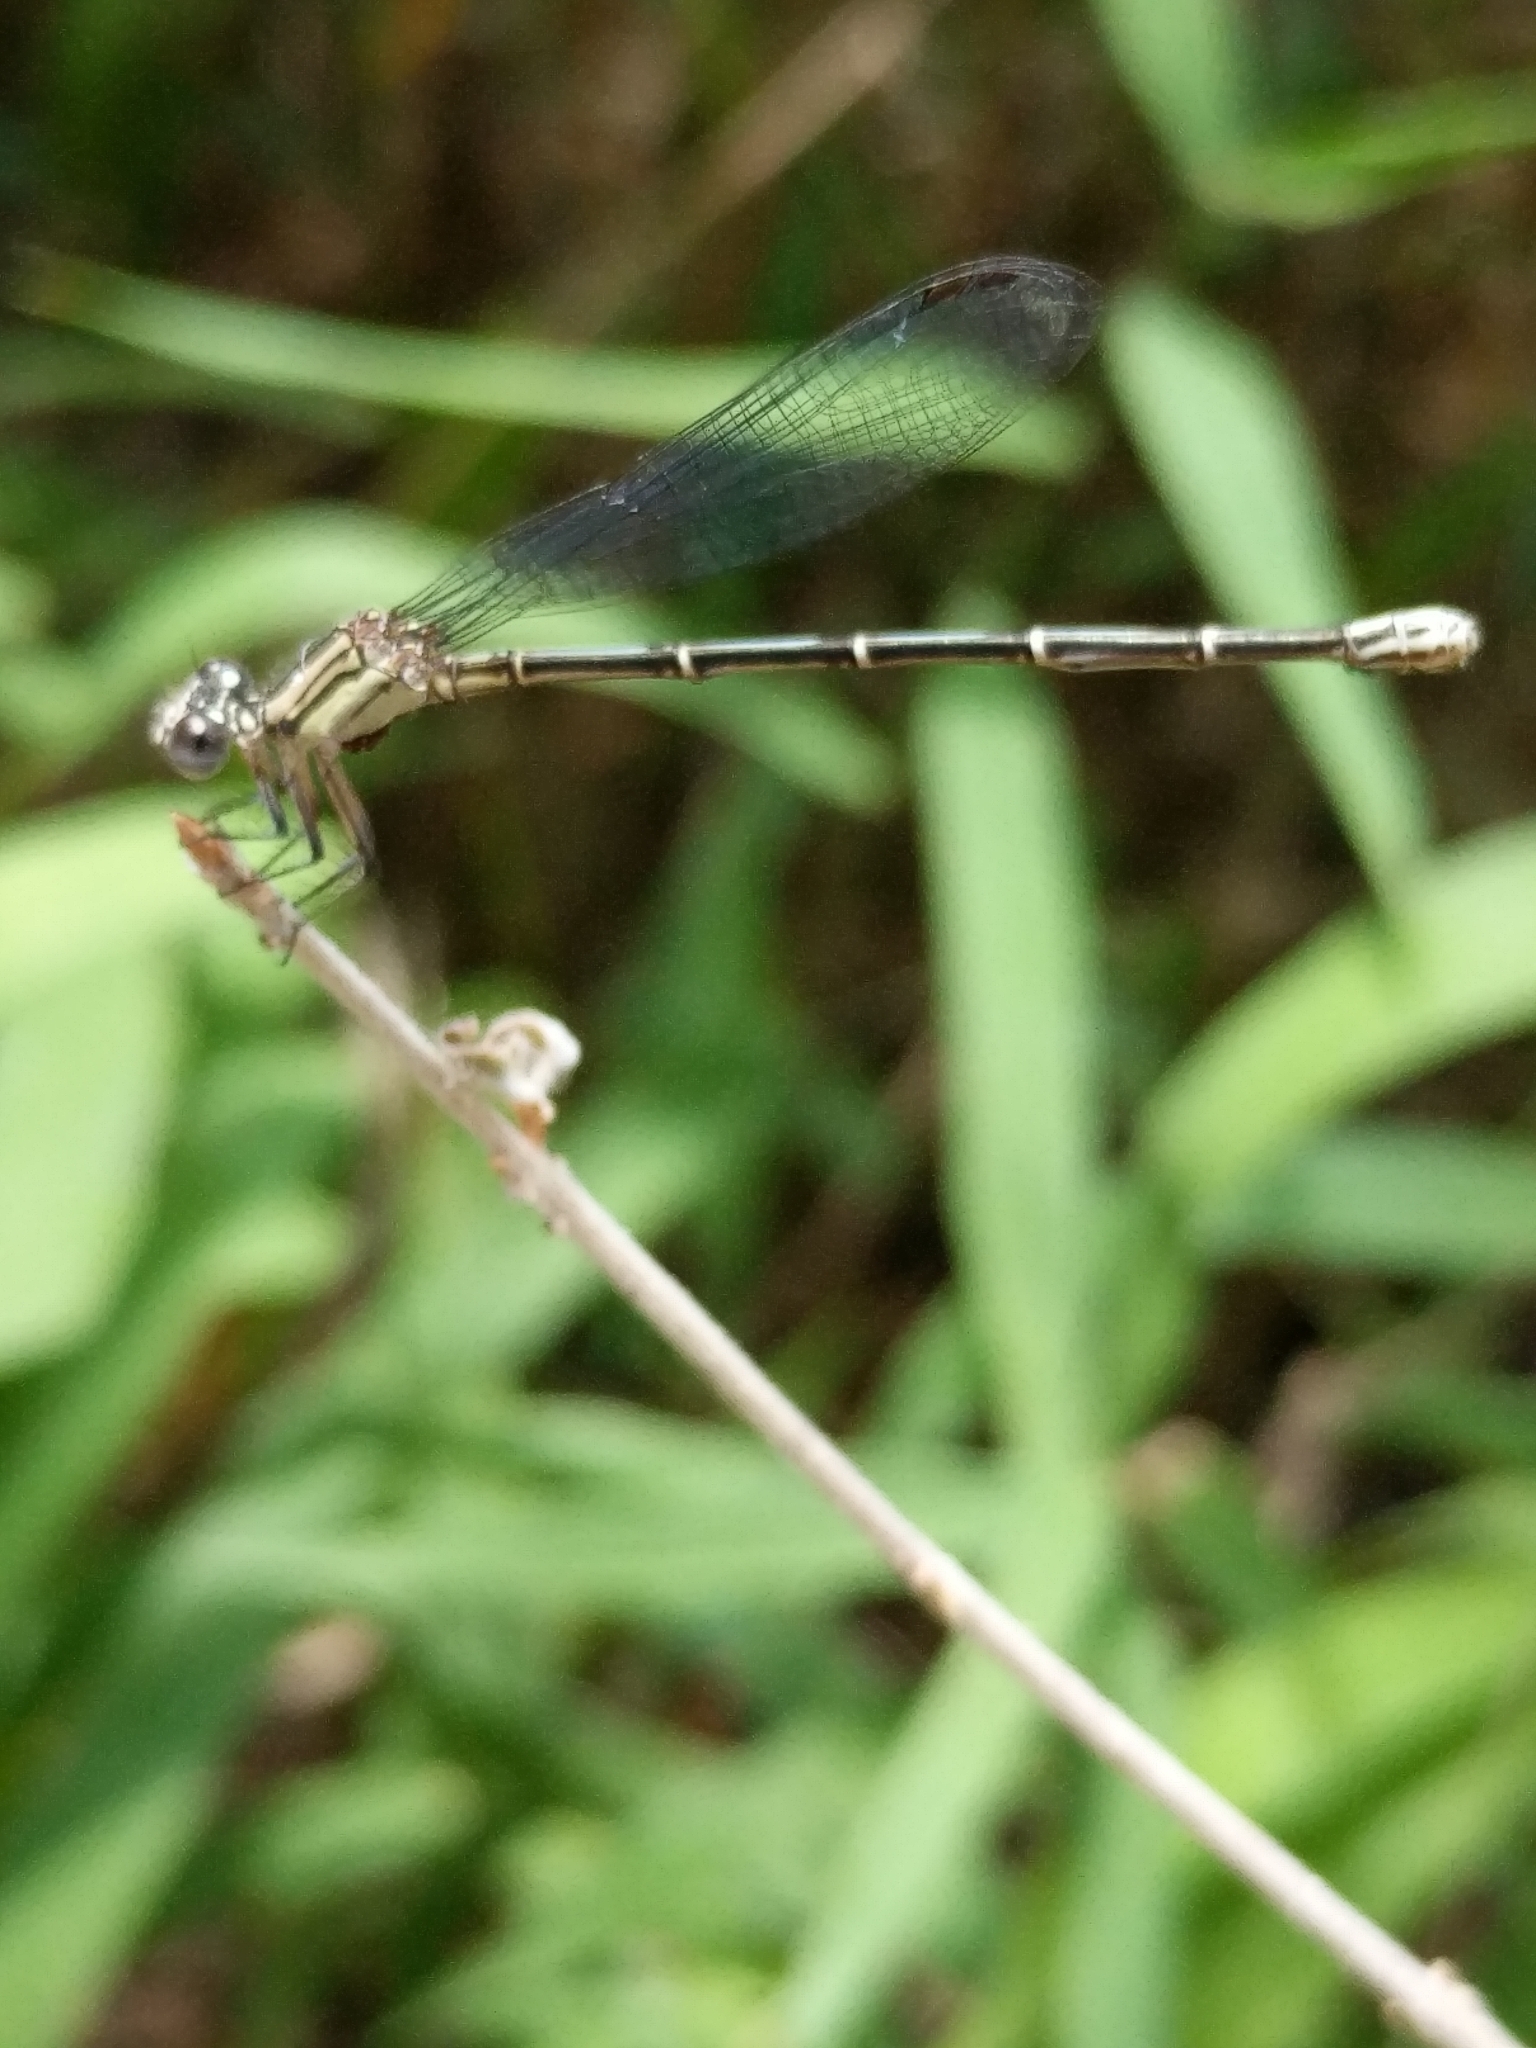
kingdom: Animalia
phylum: Arthropoda
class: Insecta
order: Odonata
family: Coenagrionidae
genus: Argia
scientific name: Argia translata
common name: Dusky dancer
